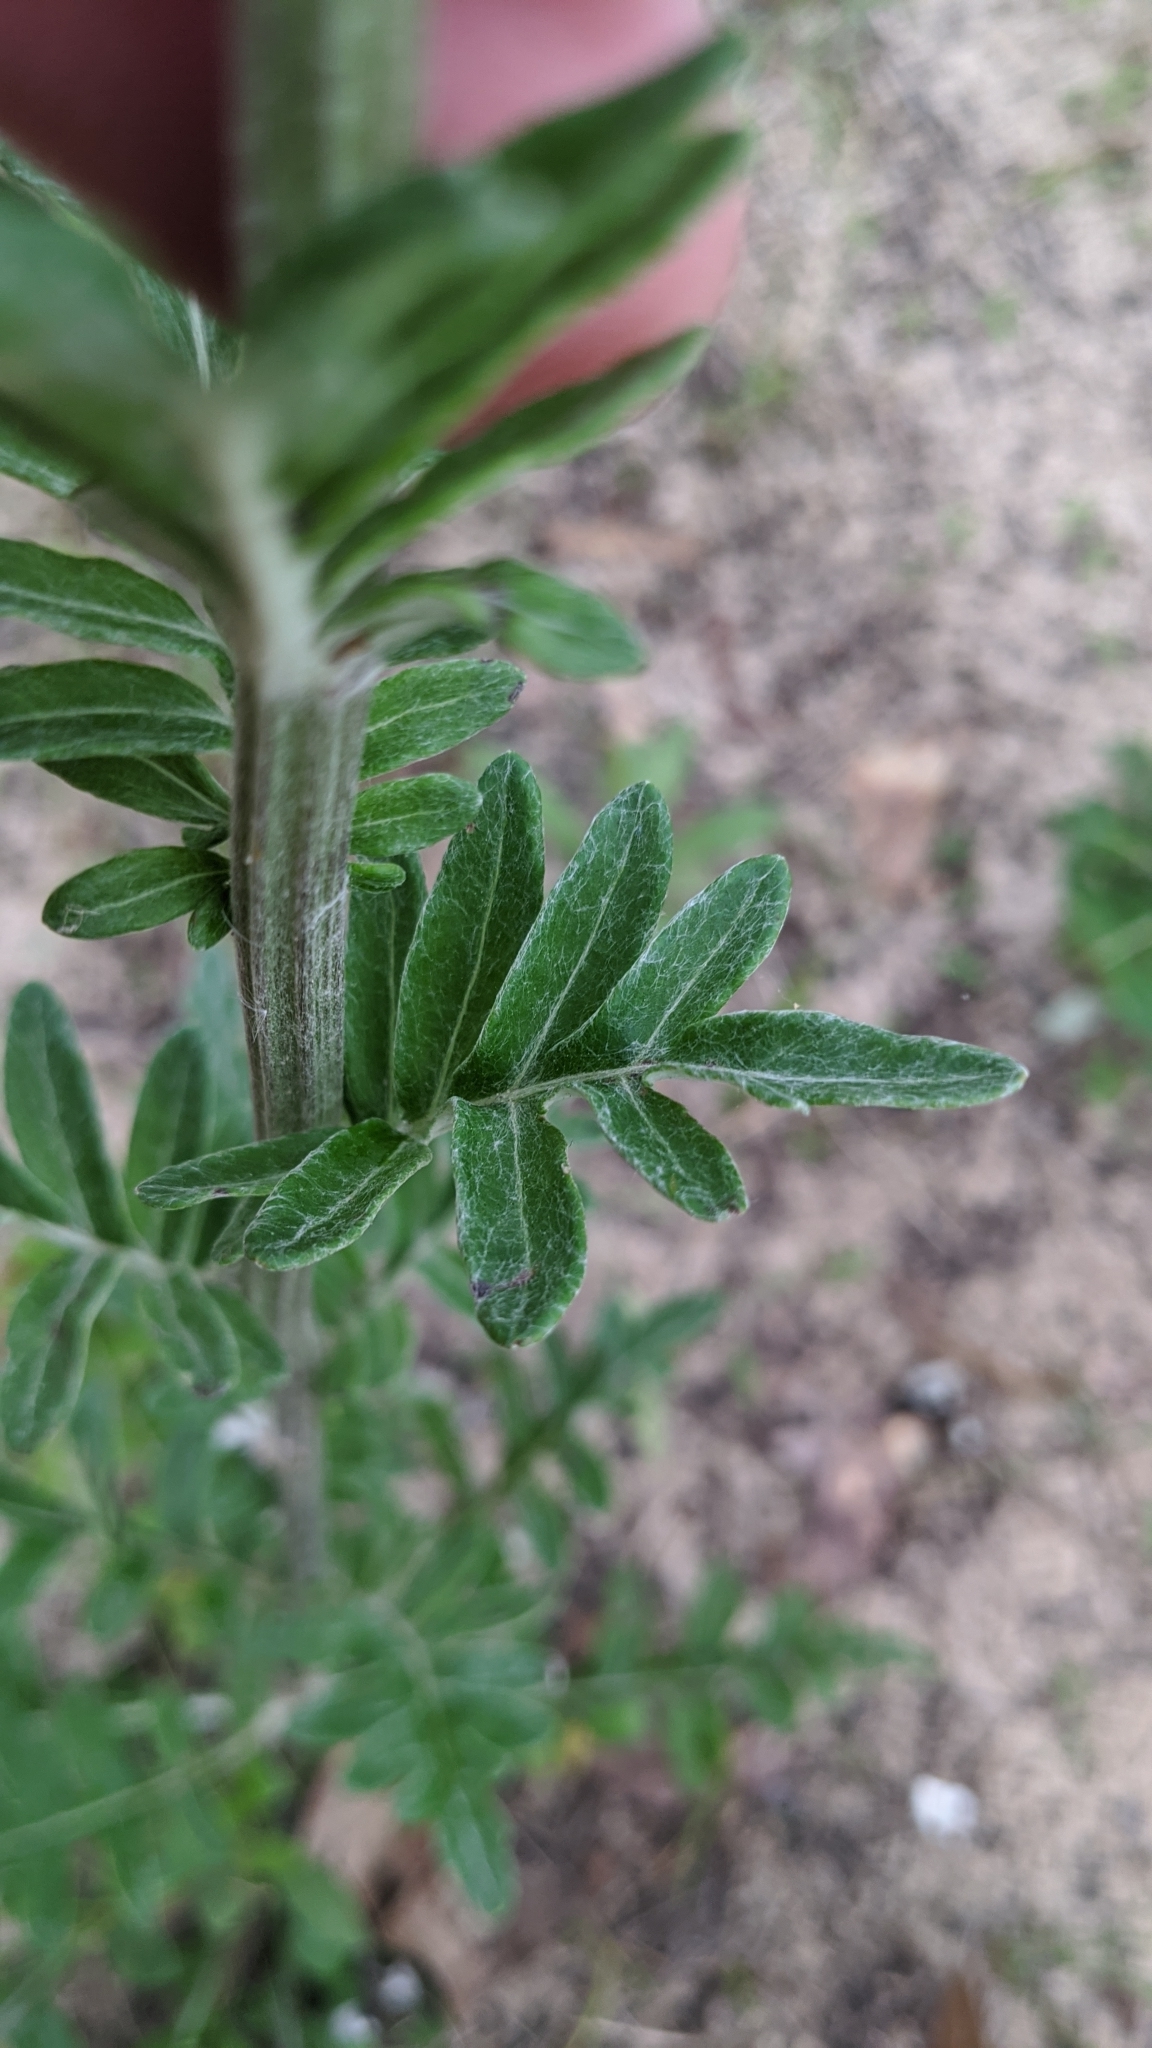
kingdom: Plantae
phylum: Tracheophyta
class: Magnoliopsida
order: Asterales
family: Asteraceae
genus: Hymenopappus
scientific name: Hymenopappus artemisiifolius
